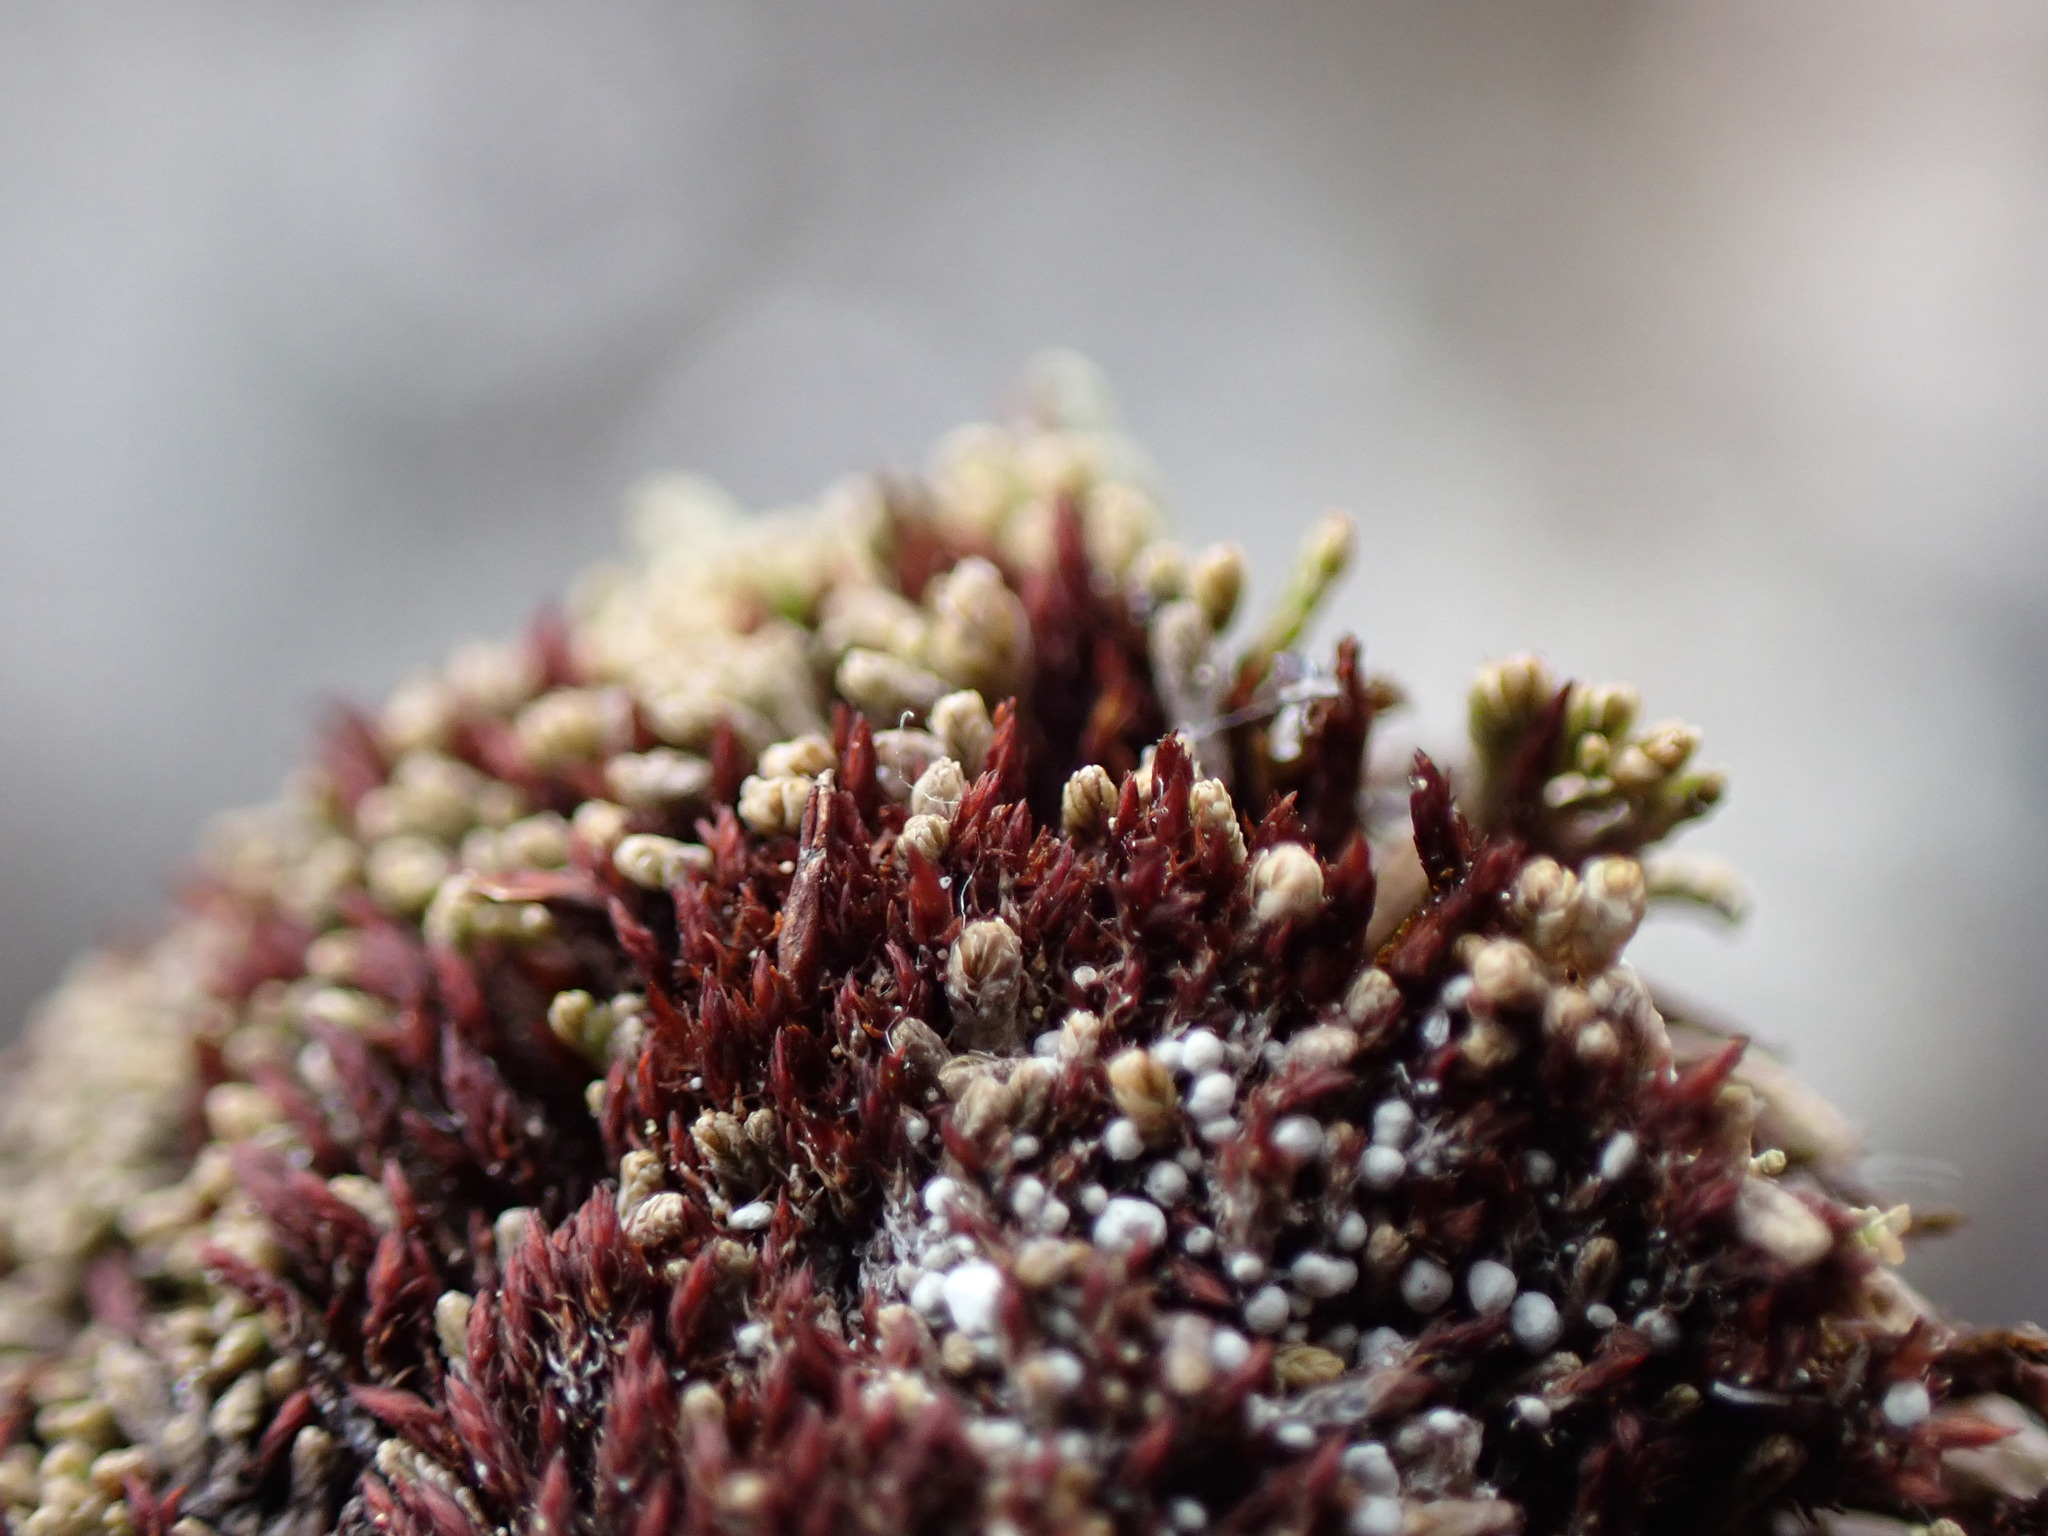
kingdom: Plantae
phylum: Bryophyta
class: Andreaeopsida
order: Andreaeales
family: Andreaeaceae
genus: Andreaea
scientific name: Andreaea rupestris
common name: Black rock moss
